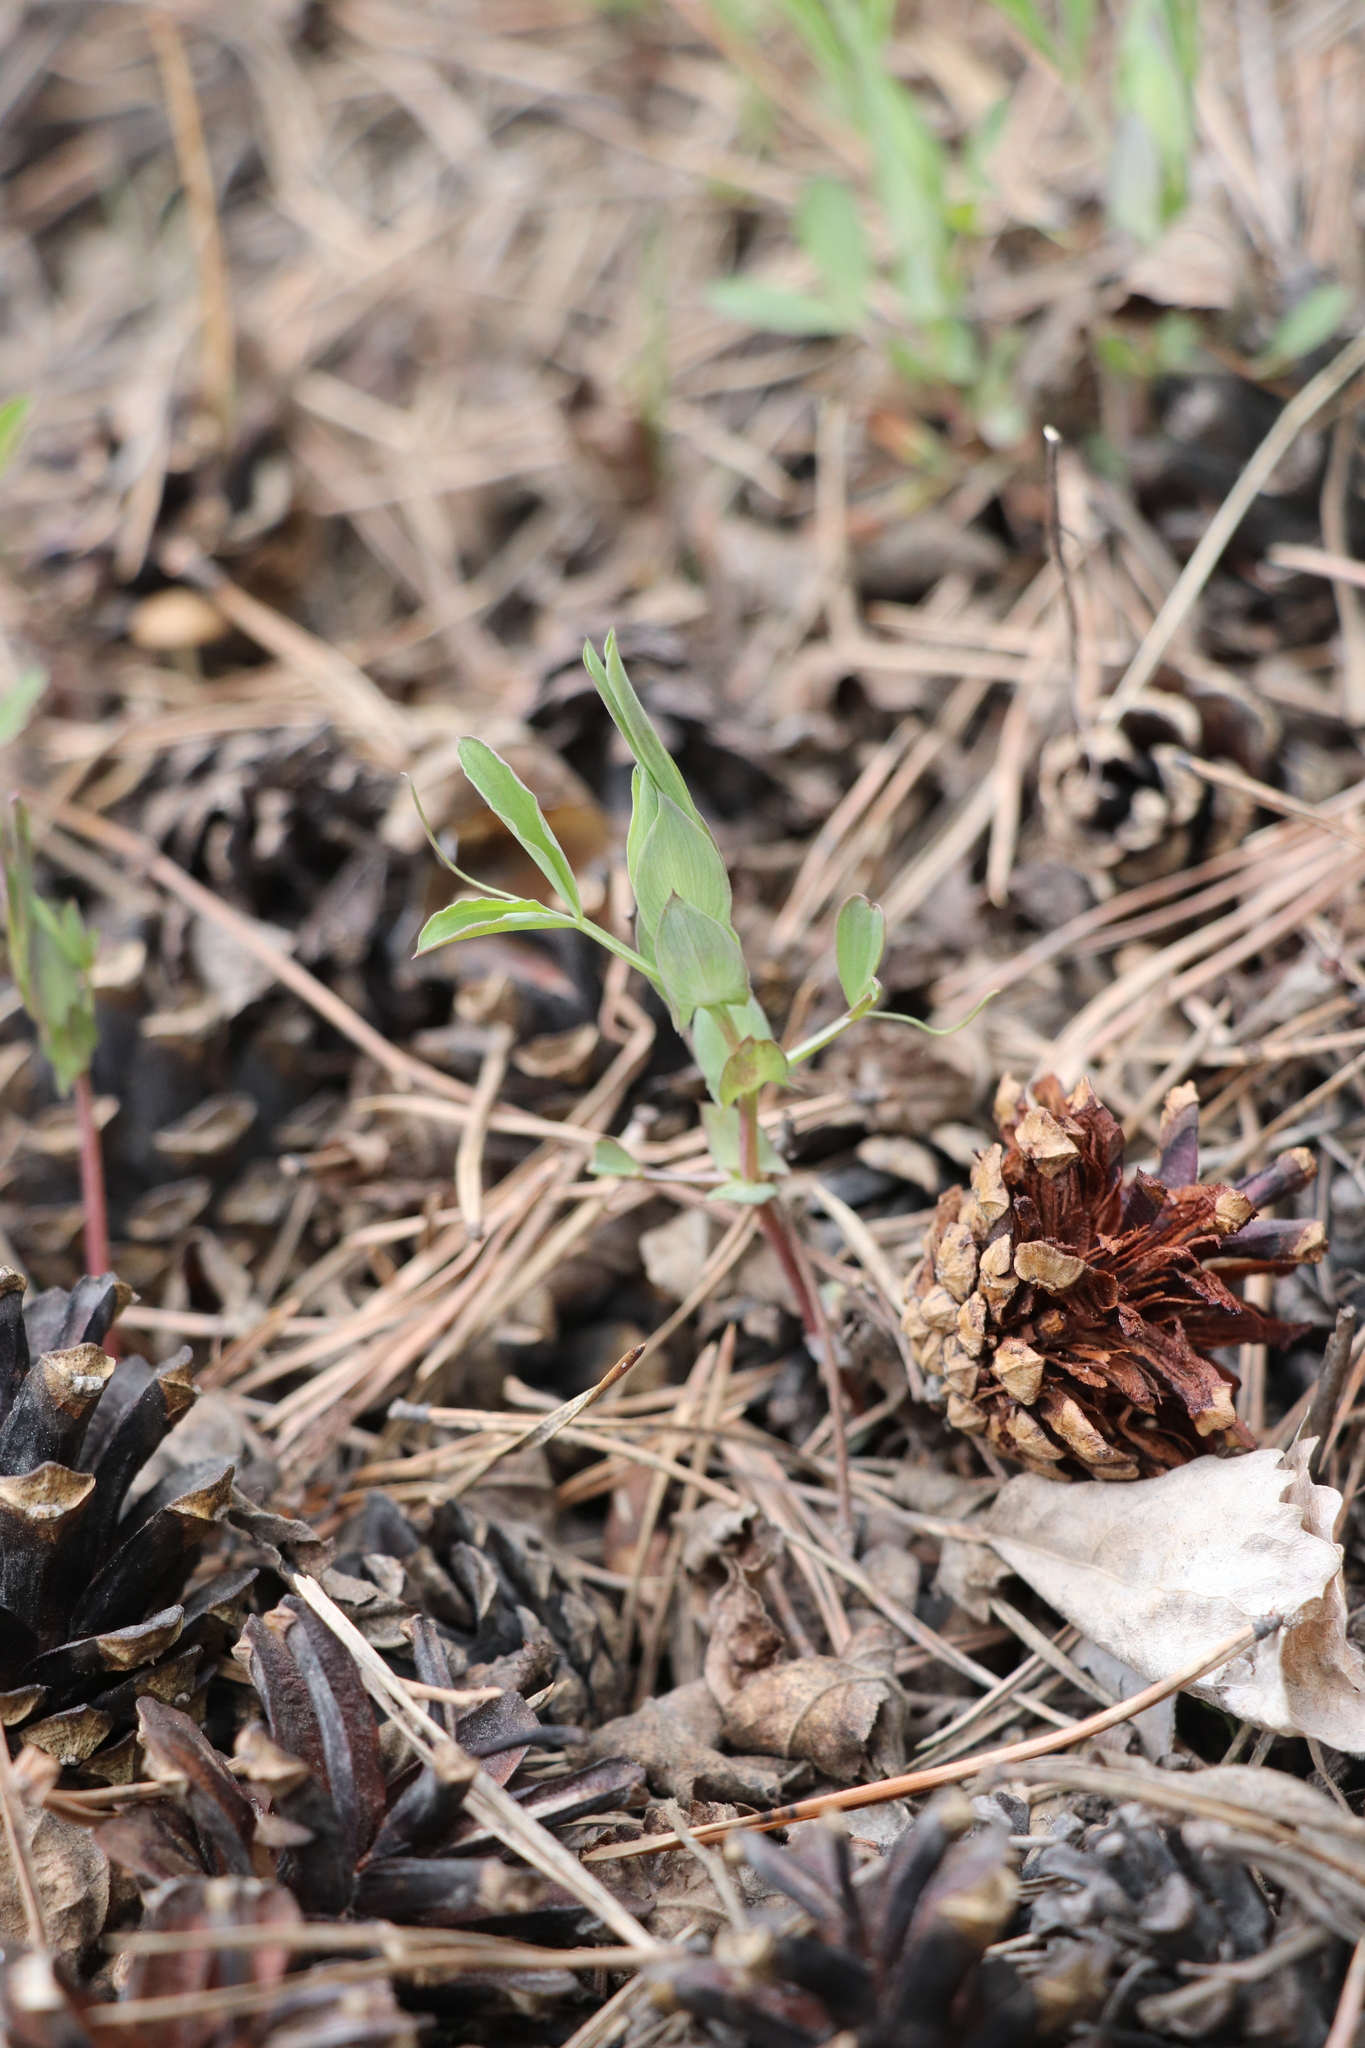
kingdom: Plantae
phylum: Tracheophyta
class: Magnoliopsida
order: Fabales
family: Fabaceae
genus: Lathyrus
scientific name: Lathyrus pratensis
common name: Meadow vetchling
